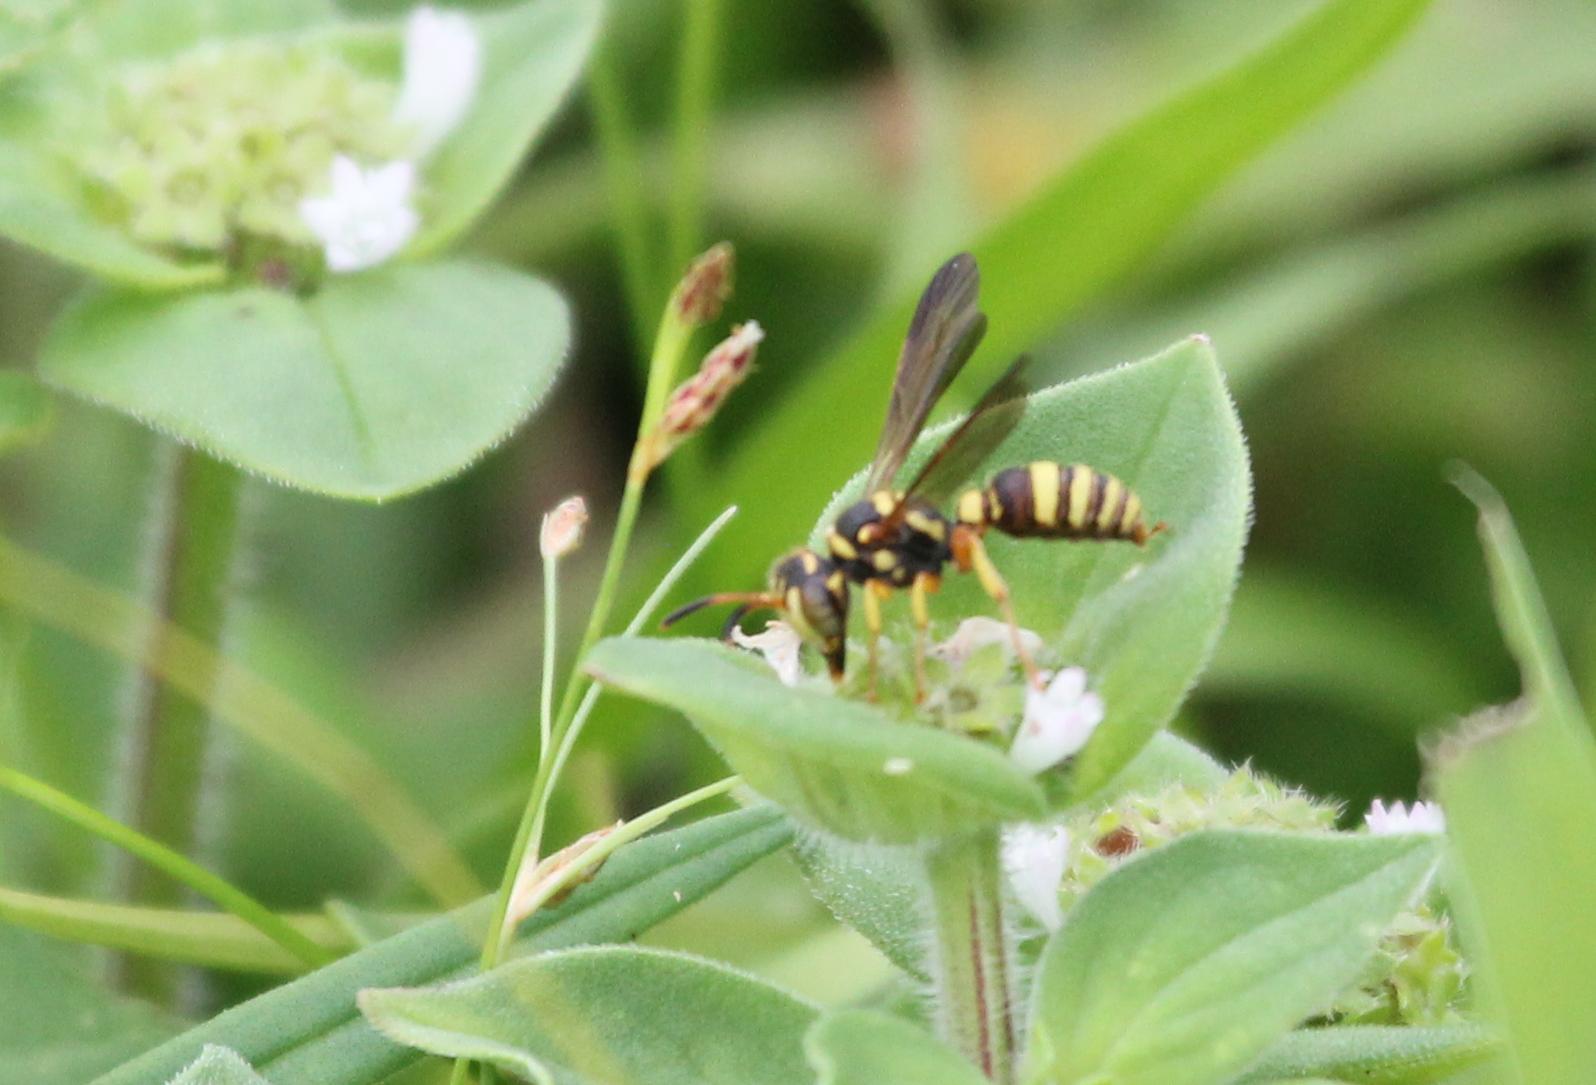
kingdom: Animalia
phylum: Arthropoda
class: Insecta
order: Hymenoptera
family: Crabronidae
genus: Cerceris
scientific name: Cerceris tolteca
